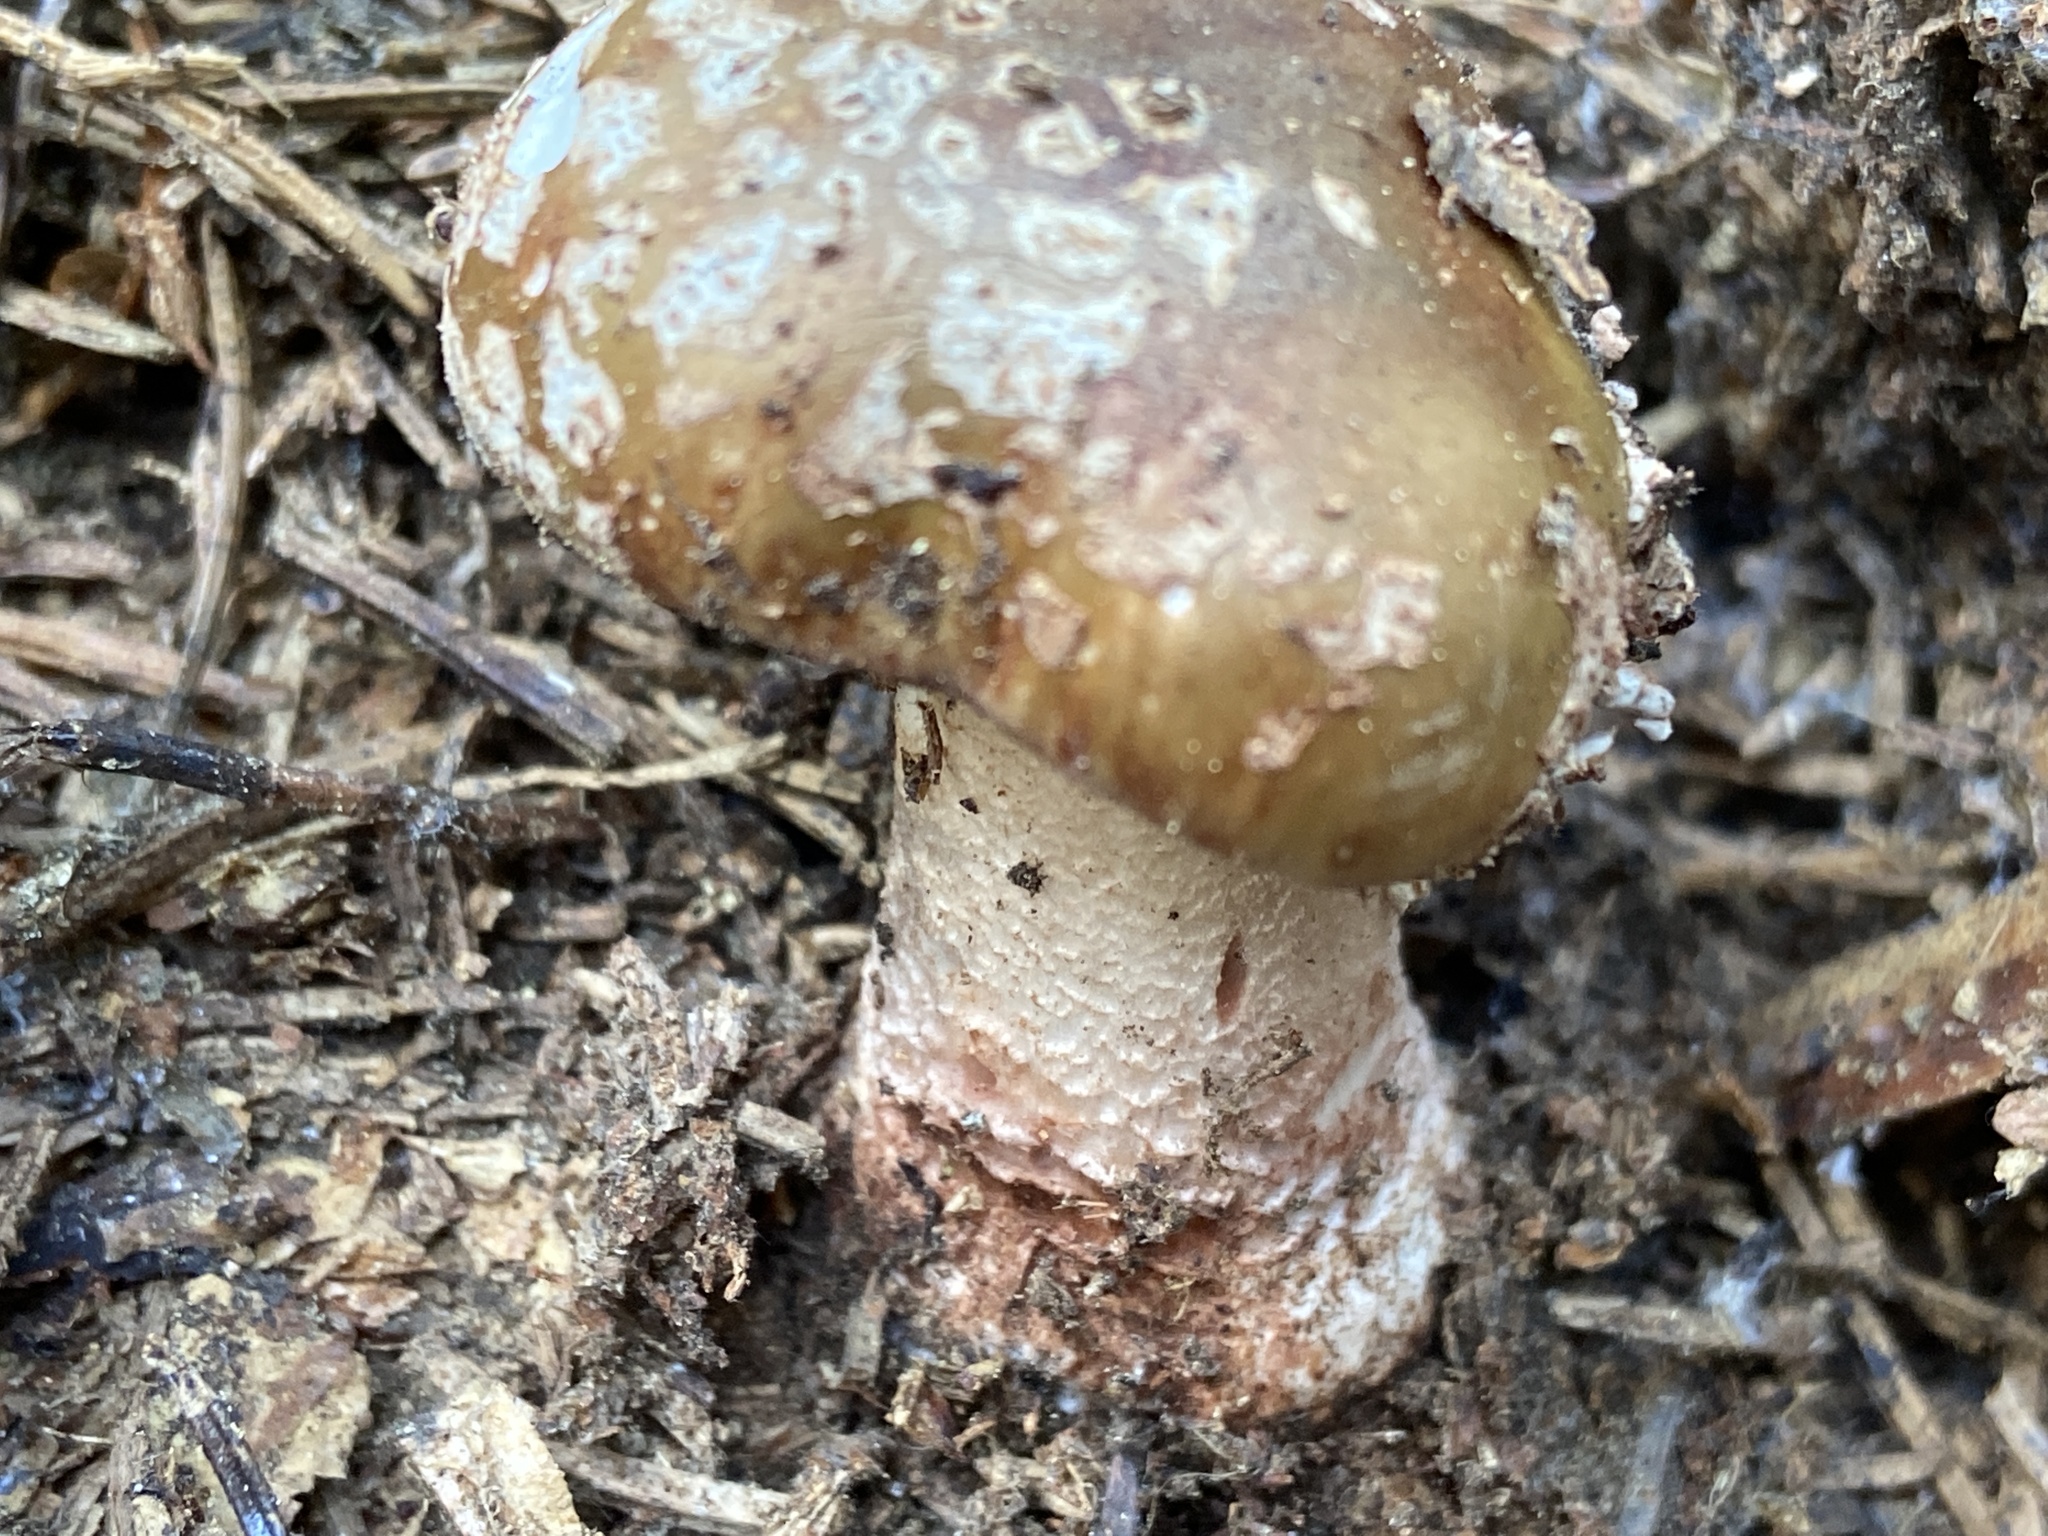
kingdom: Fungi
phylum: Basidiomycota
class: Agaricomycetes
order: Agaricales
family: Amanitaceae
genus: Amanita
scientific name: Amanita rubescens
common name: Blusher
